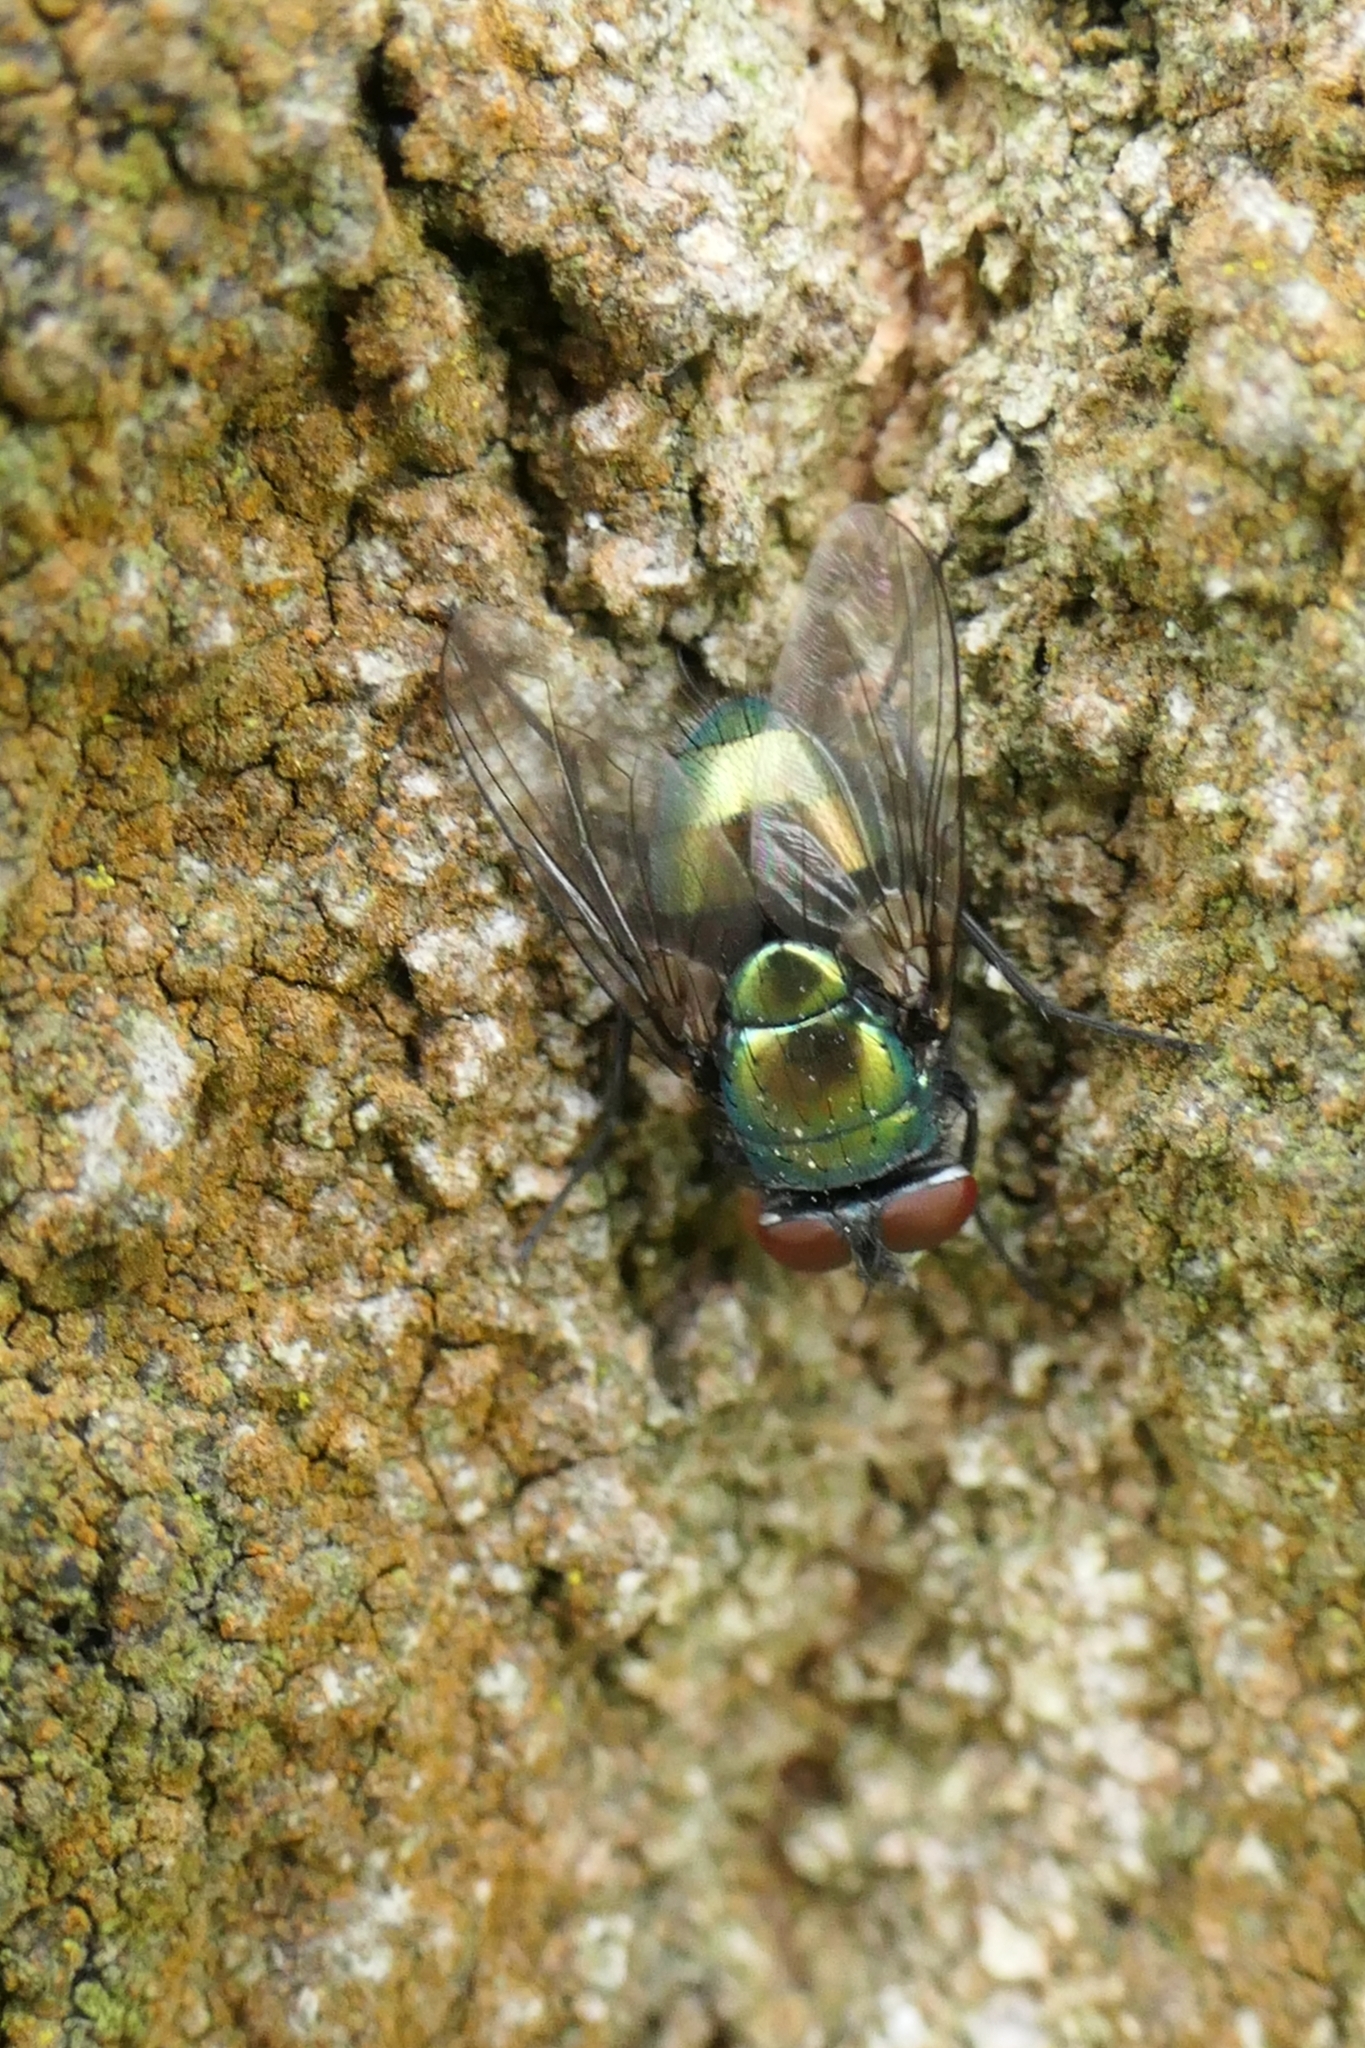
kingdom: Animalia
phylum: Arthropoda
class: Insecta
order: Diptera
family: Calliphoridae
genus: Lucilia
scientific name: Lucilia sericata
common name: Blow fly
